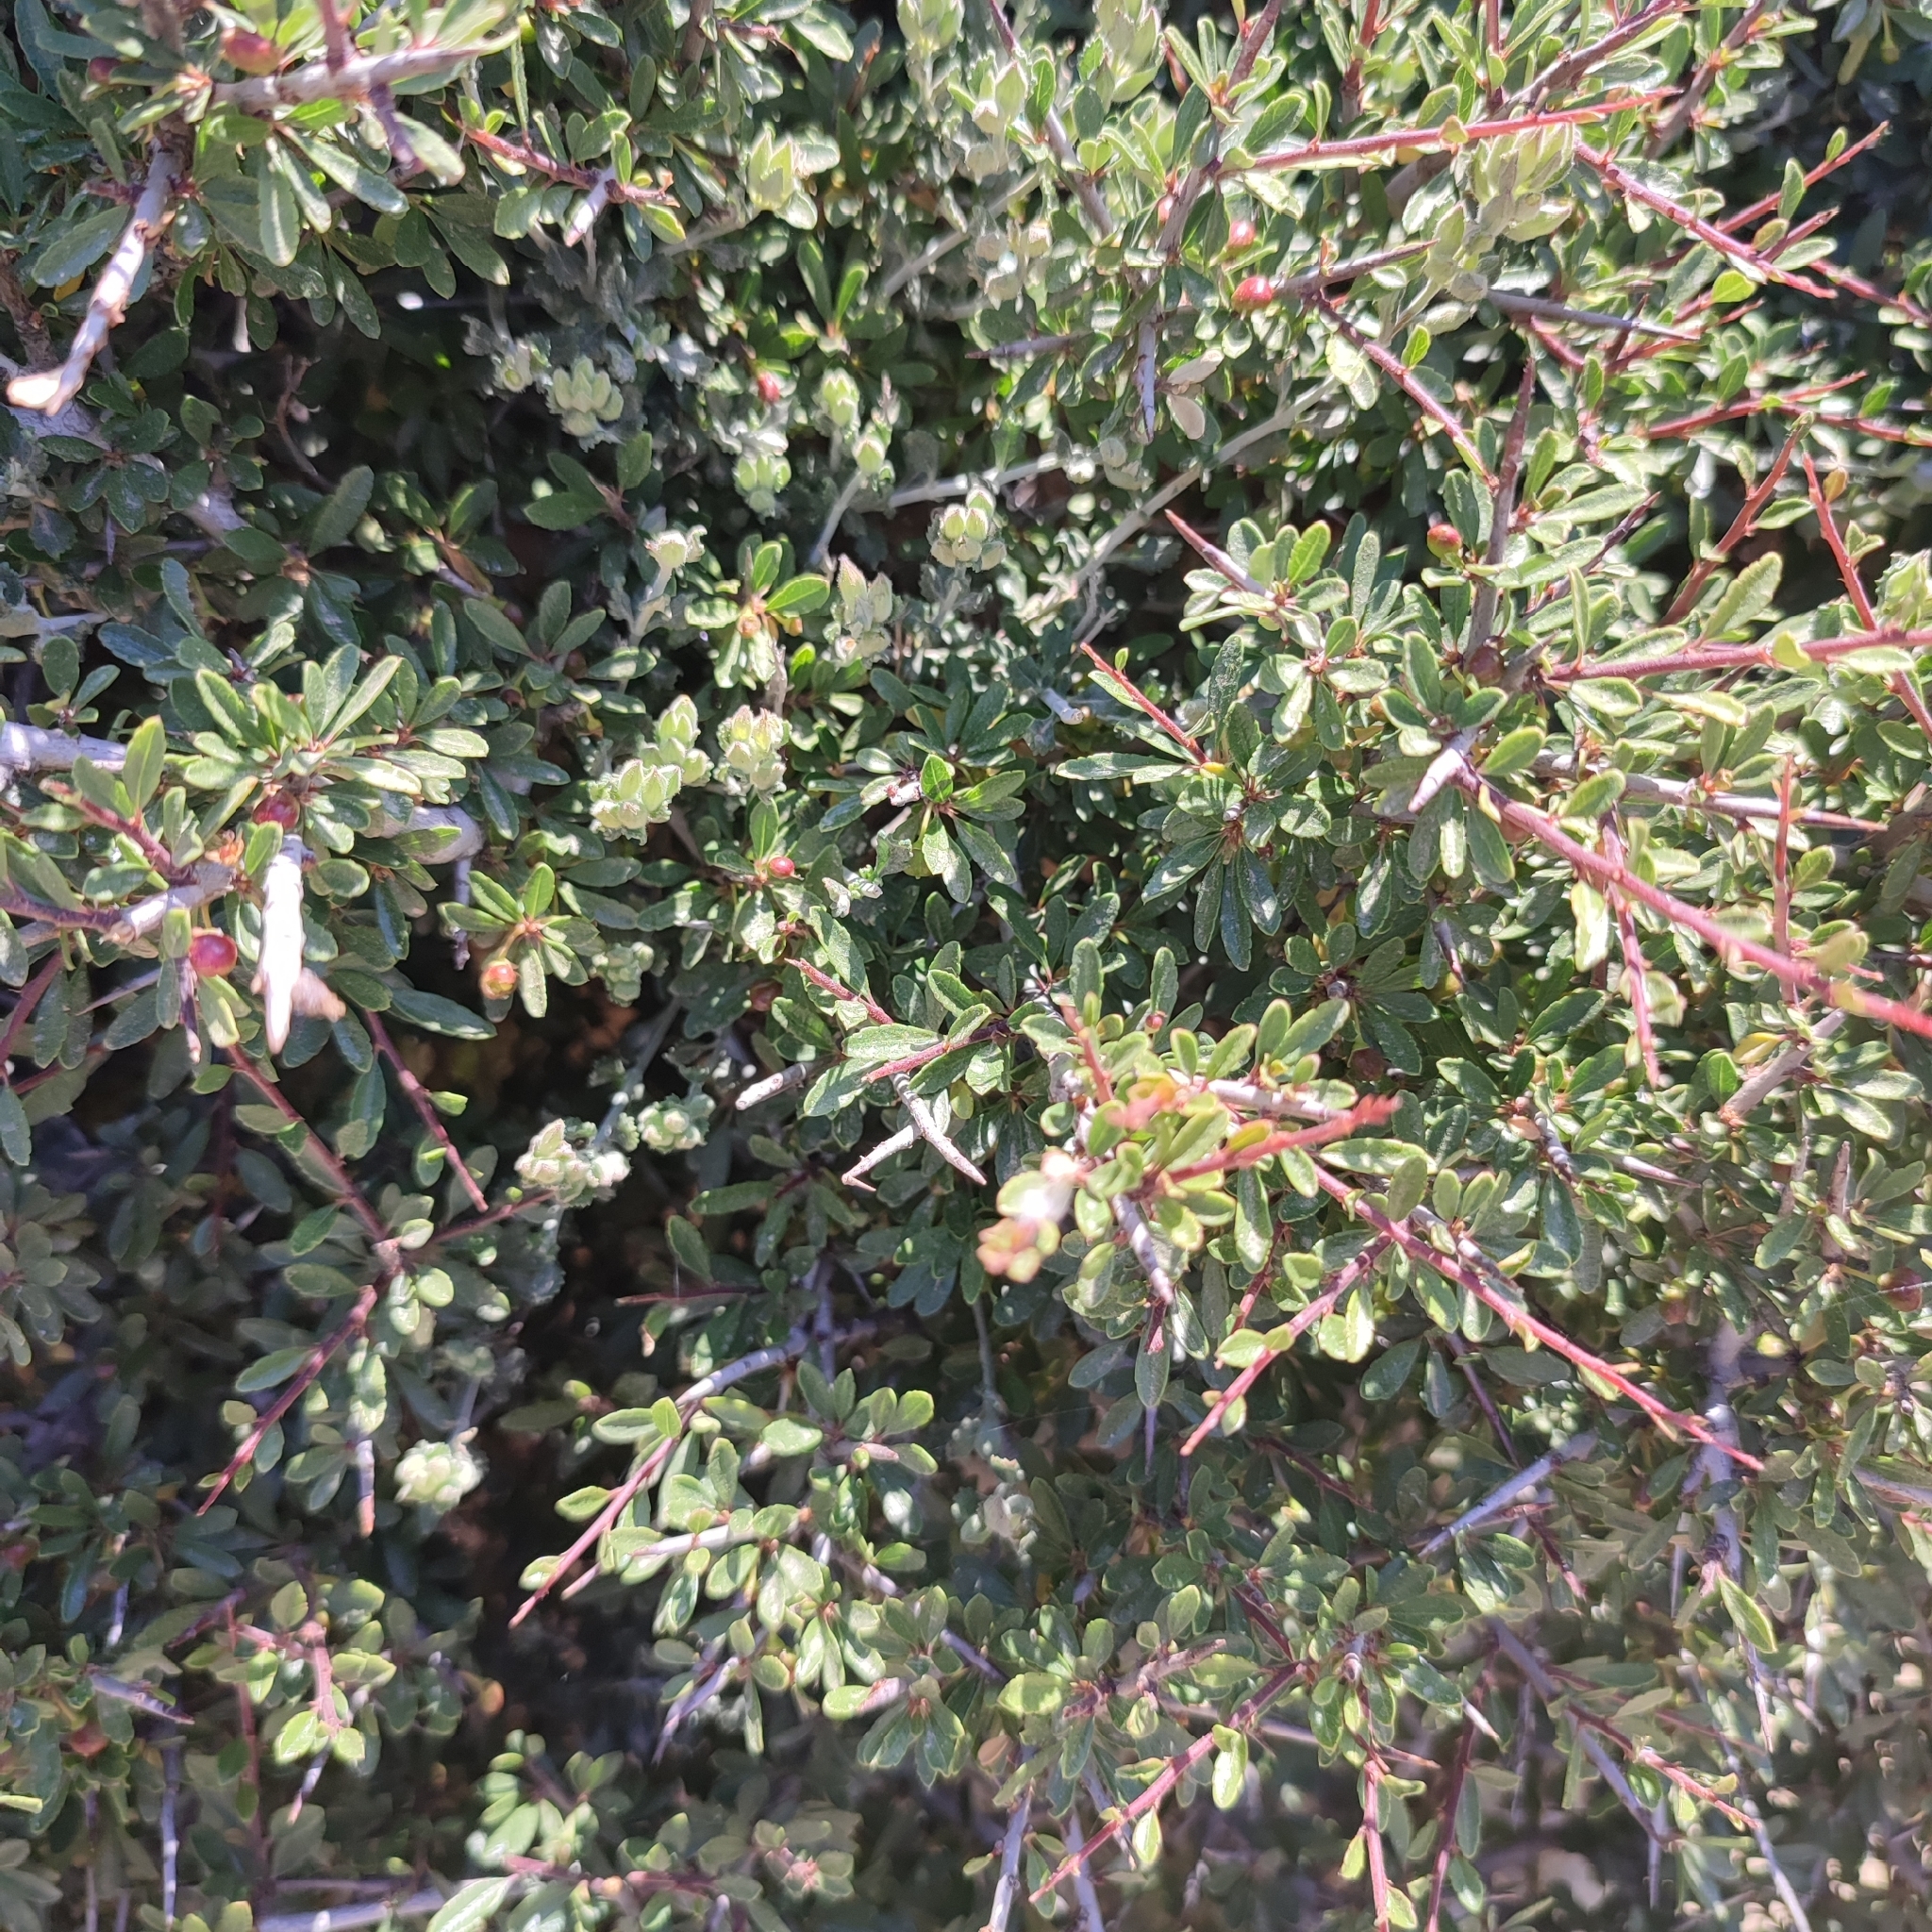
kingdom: Plantae
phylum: Tracheophyta
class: Magnoliopsida
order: Rosales
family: Rhamnaceae
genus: Rhamnus
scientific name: Rhamnus oleoides
